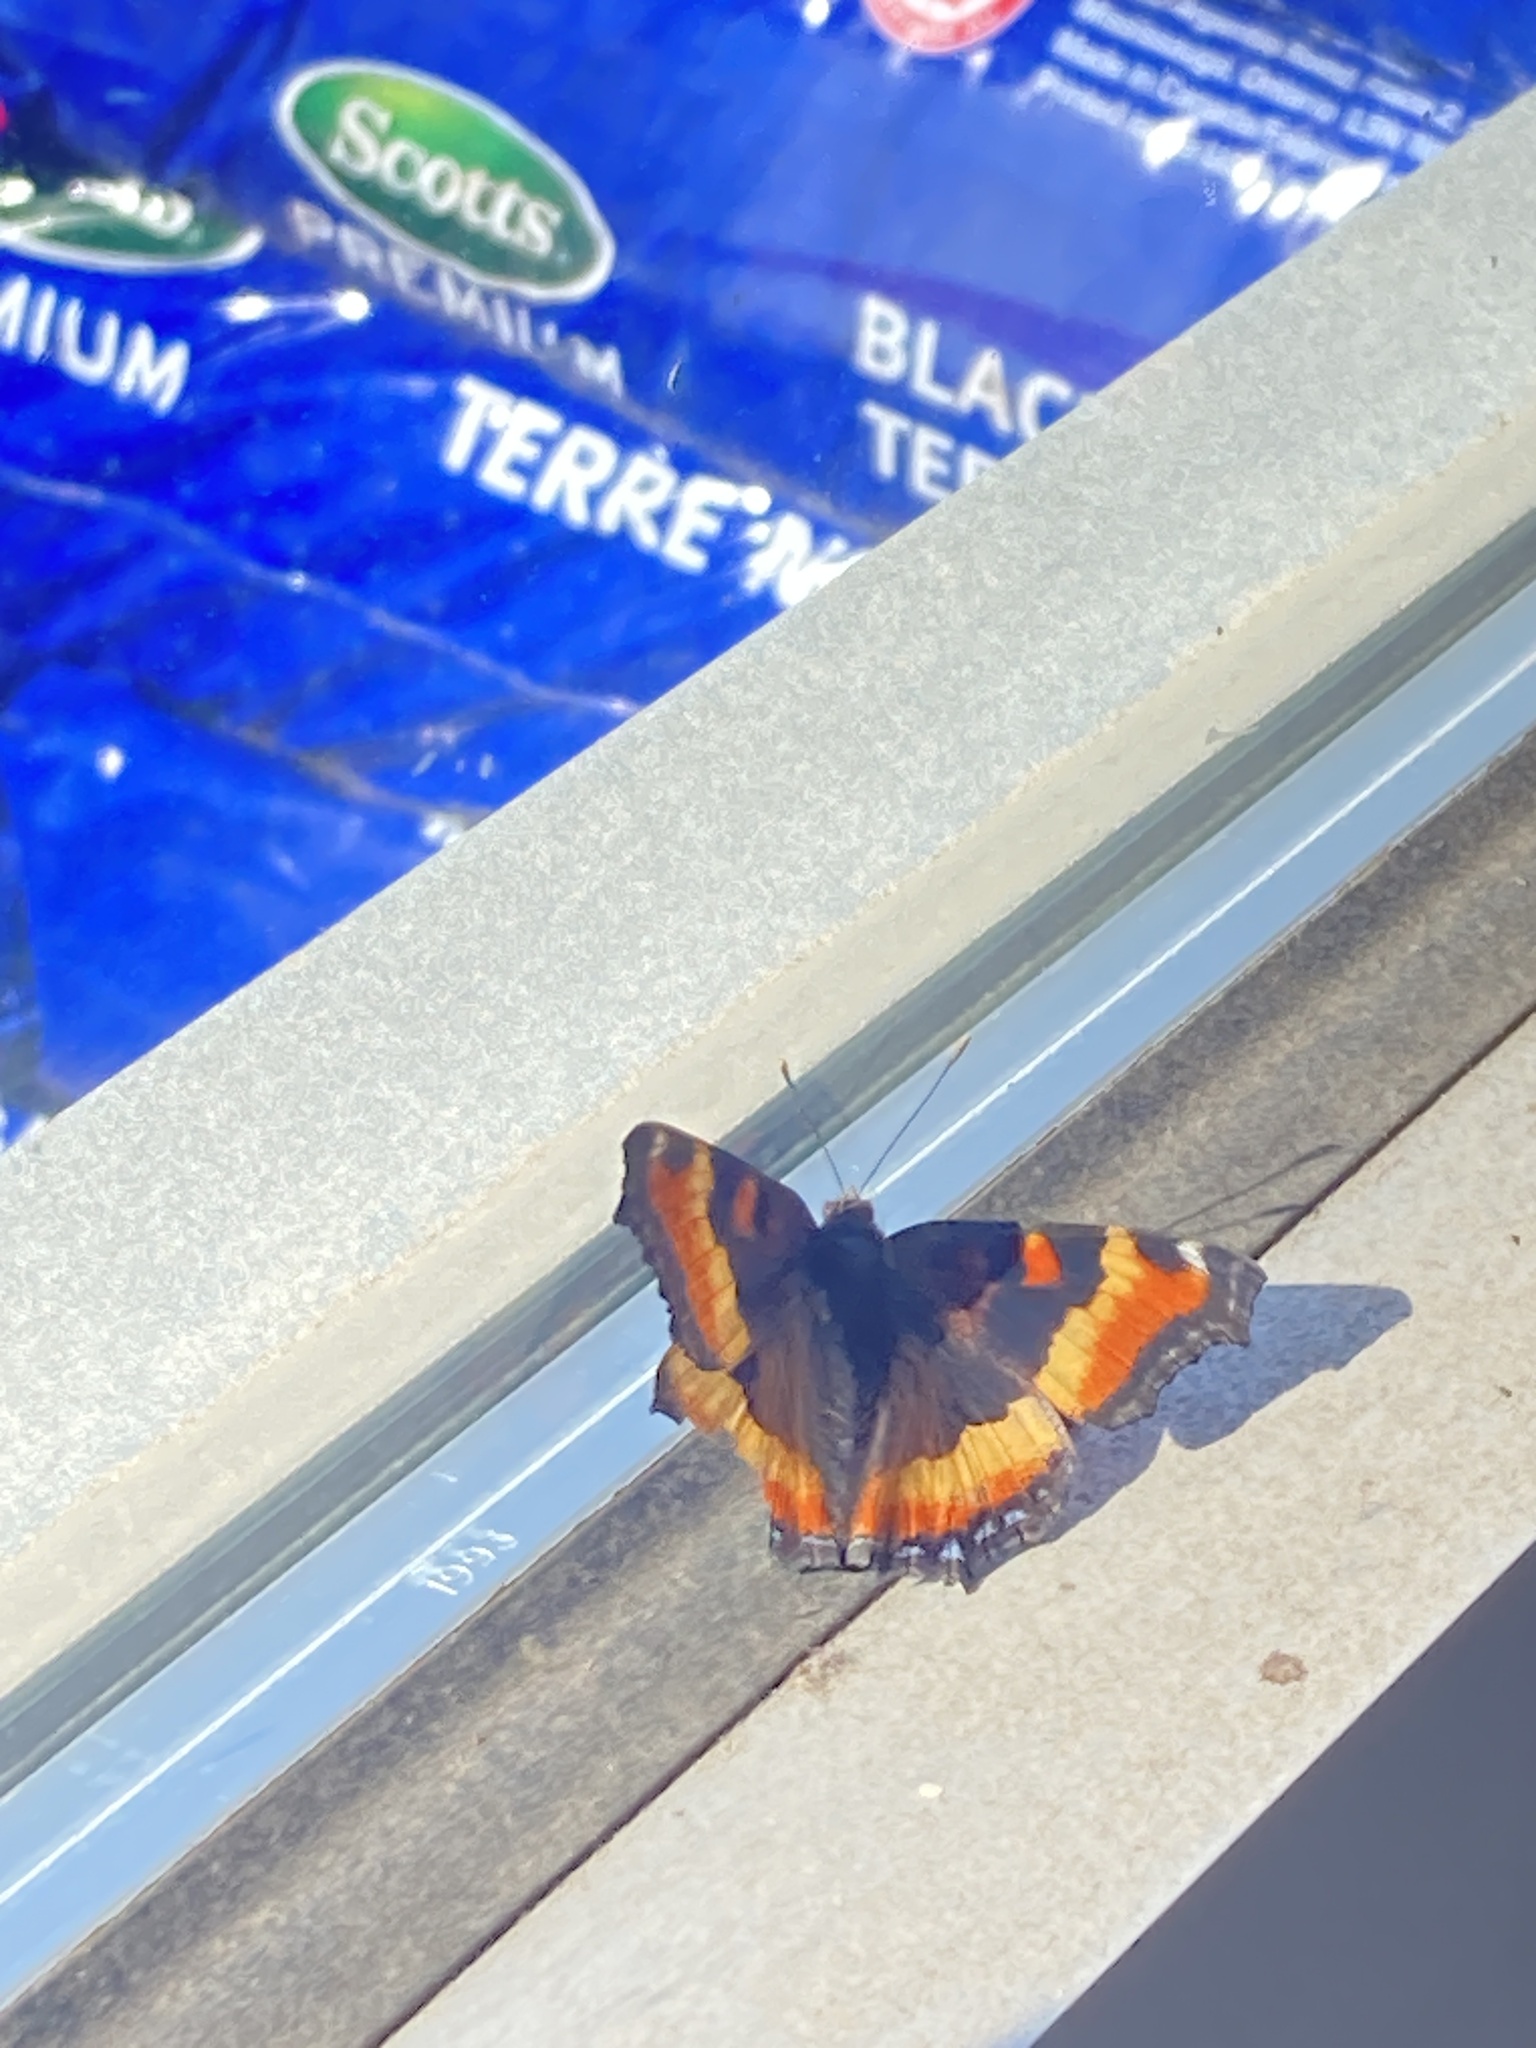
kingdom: Animalia
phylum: Arthropoda
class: Insecta
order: Lepidoptera
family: Nymphalidae
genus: Aglais
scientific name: Aglais milberti
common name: Milbert's tortoiseshell
